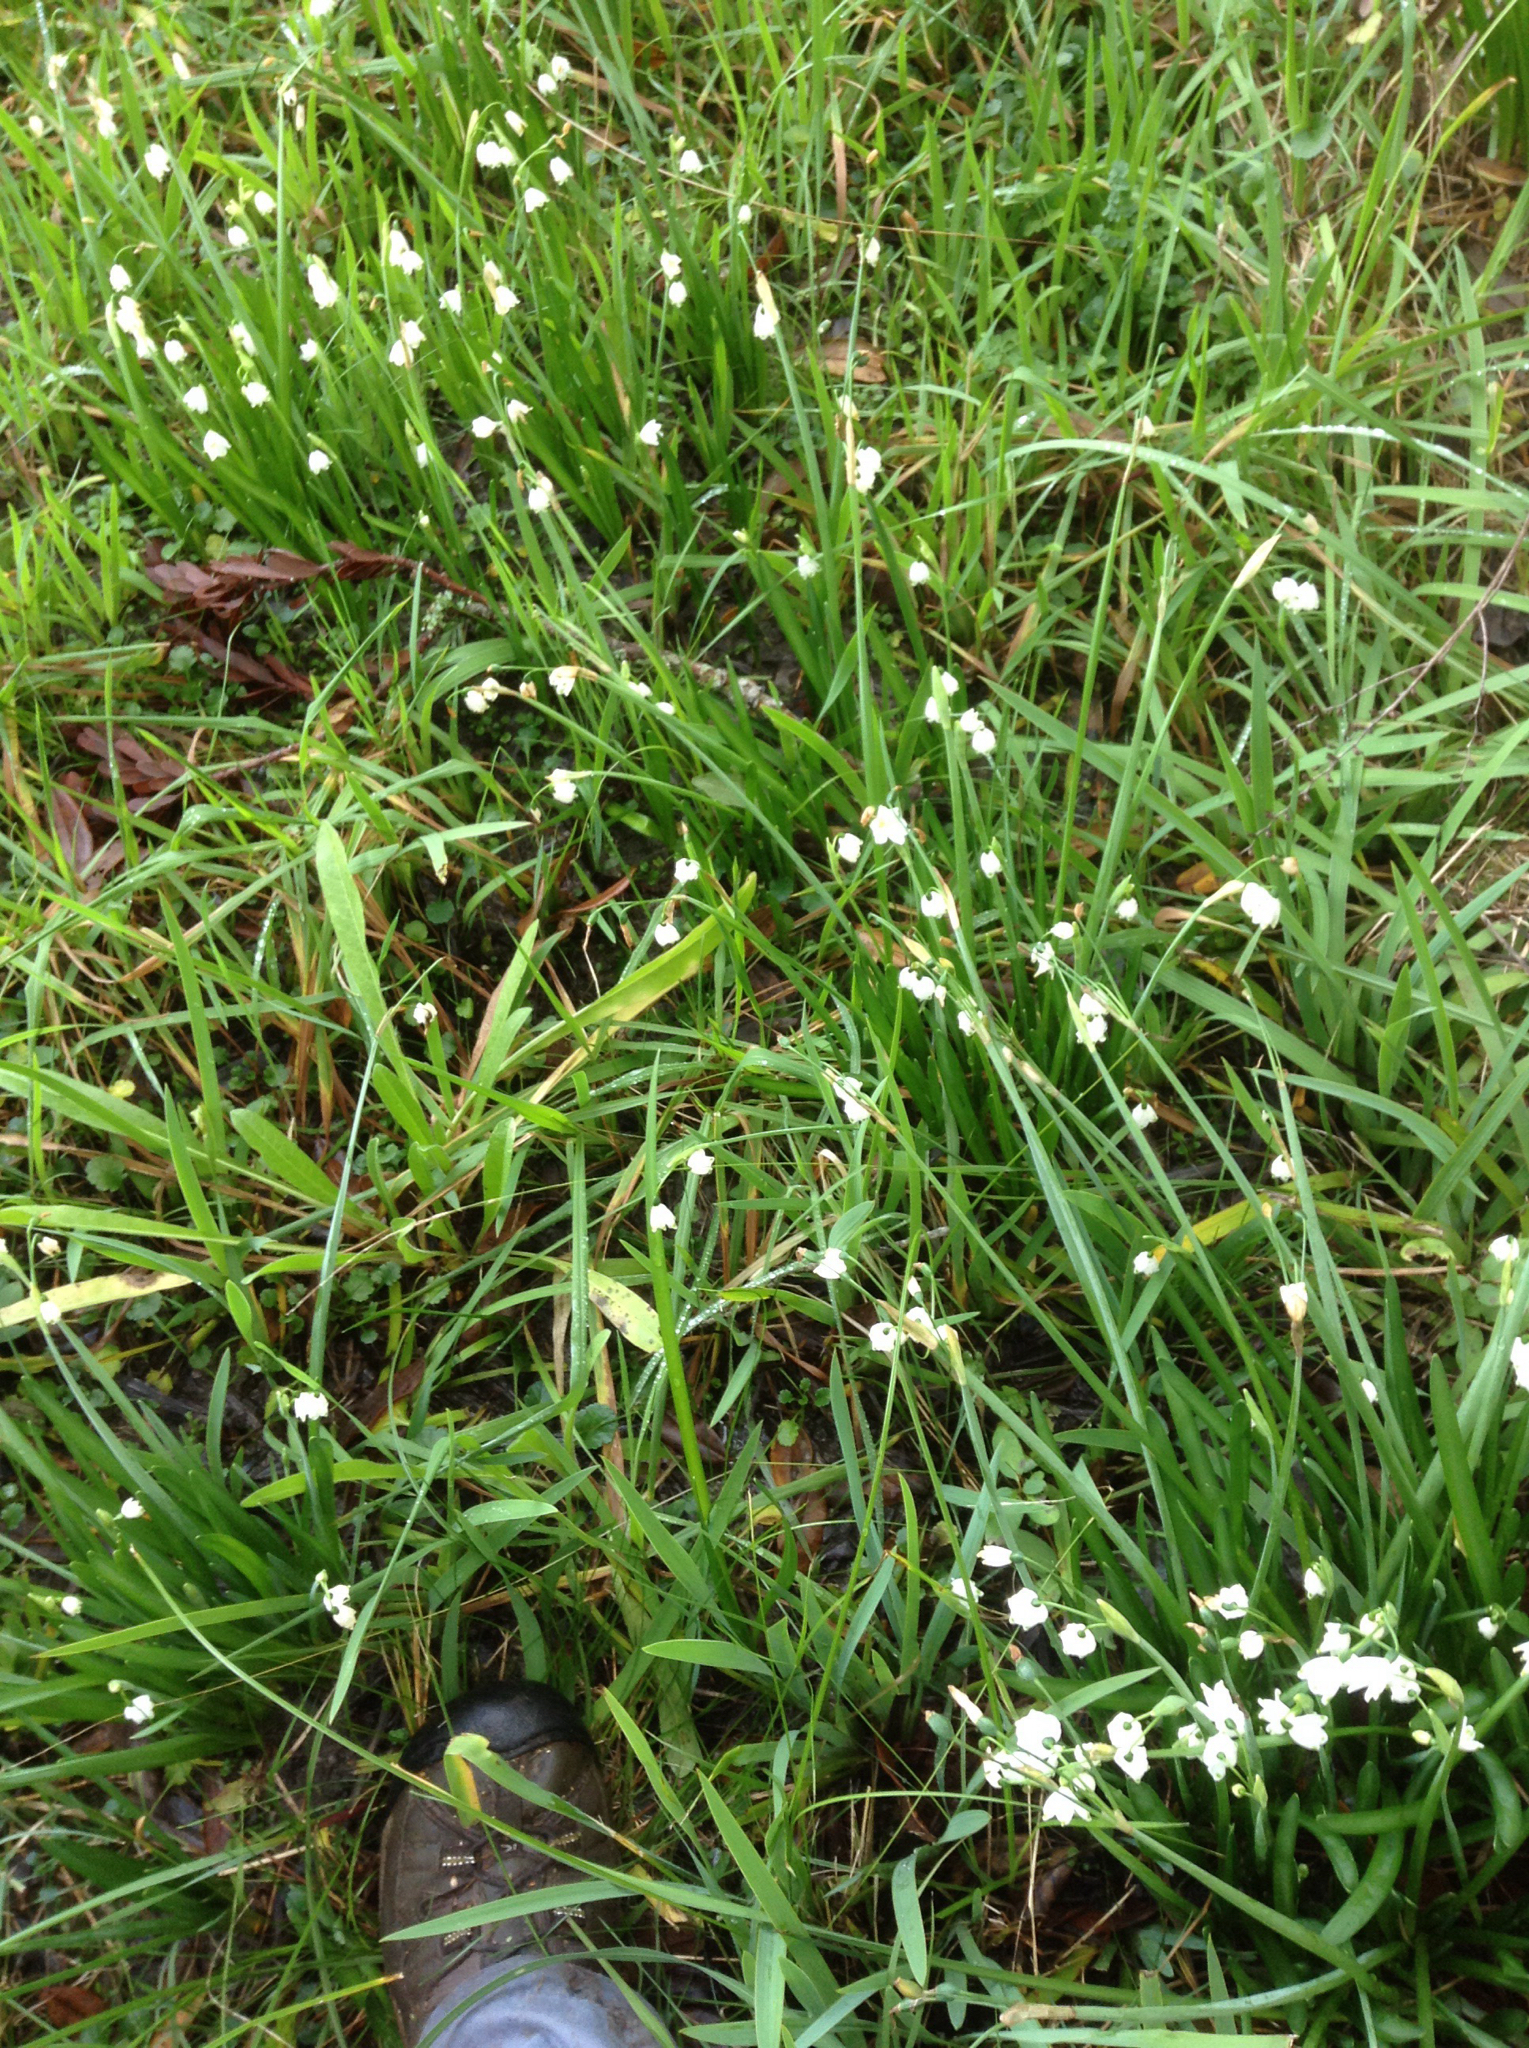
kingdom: Plantae
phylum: Tracheophyta
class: Liliopsida
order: Asparagales
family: Amaryllidaceae
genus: Leucojum
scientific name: Leucojum aestivum
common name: Summer snowflake
